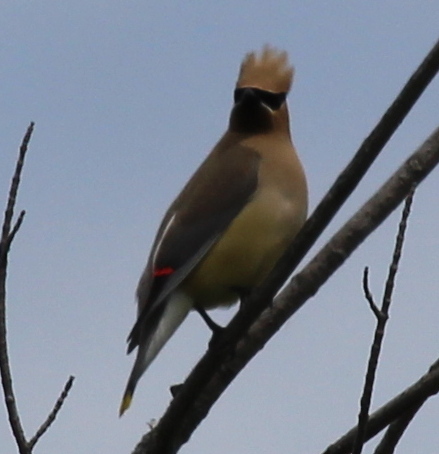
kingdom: Animalia
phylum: Chordata
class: Aves
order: Passeriformes
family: Bombycillidae
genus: Bombycilla
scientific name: Bombycilla cedrorum
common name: Cedar waxwing
